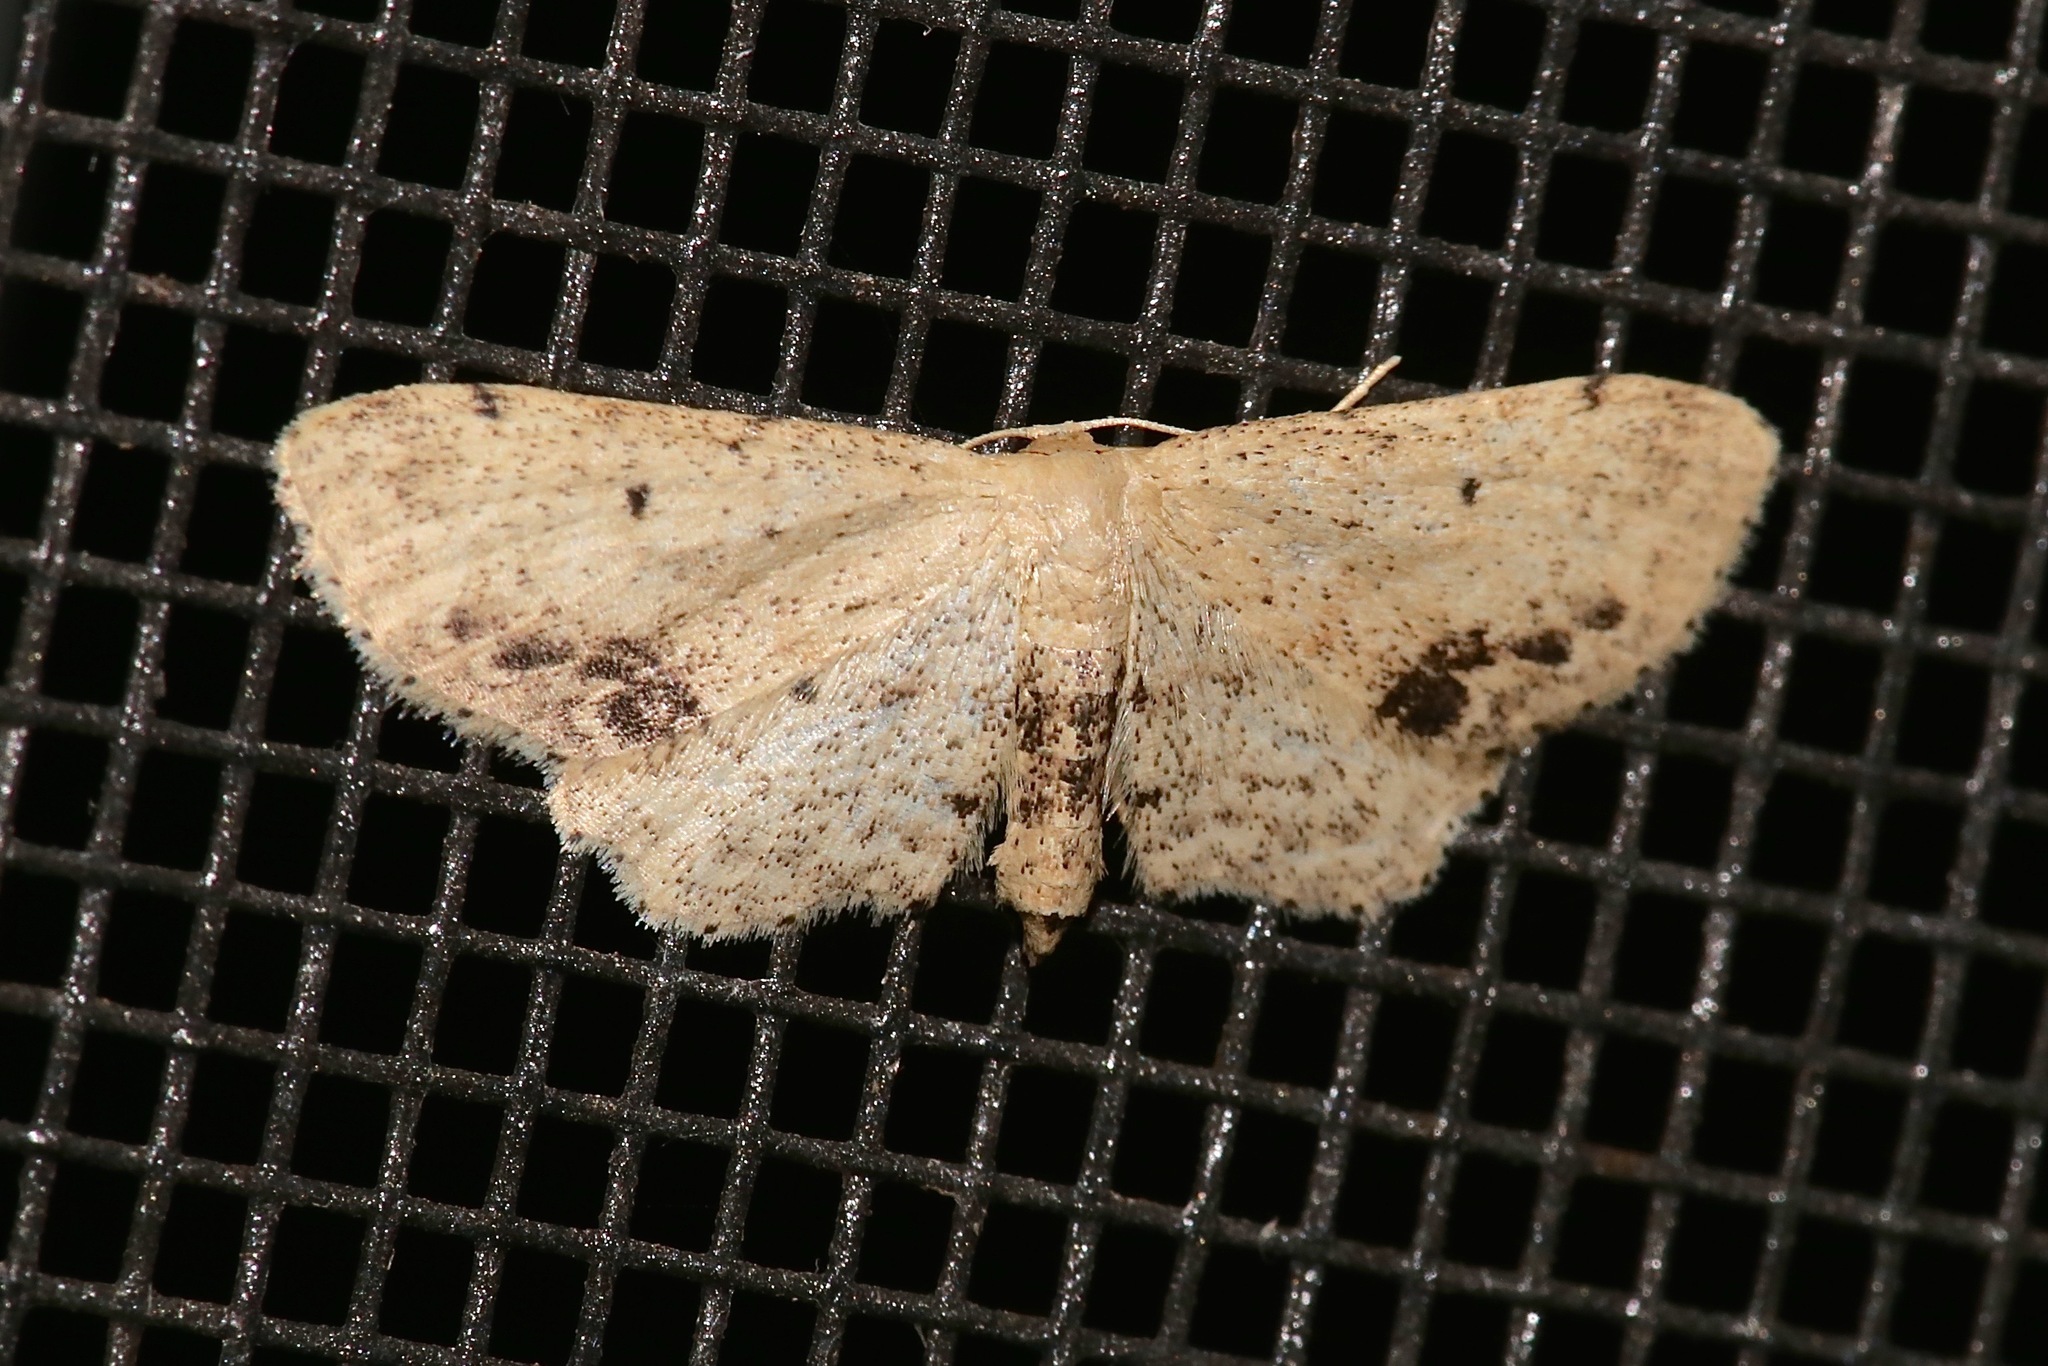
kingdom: Animalia
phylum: Arthropoda
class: Insecta
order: Lepidoptera
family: Geometridae
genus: Idaea
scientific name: Idaea dimidiata
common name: Single-dotted wave
